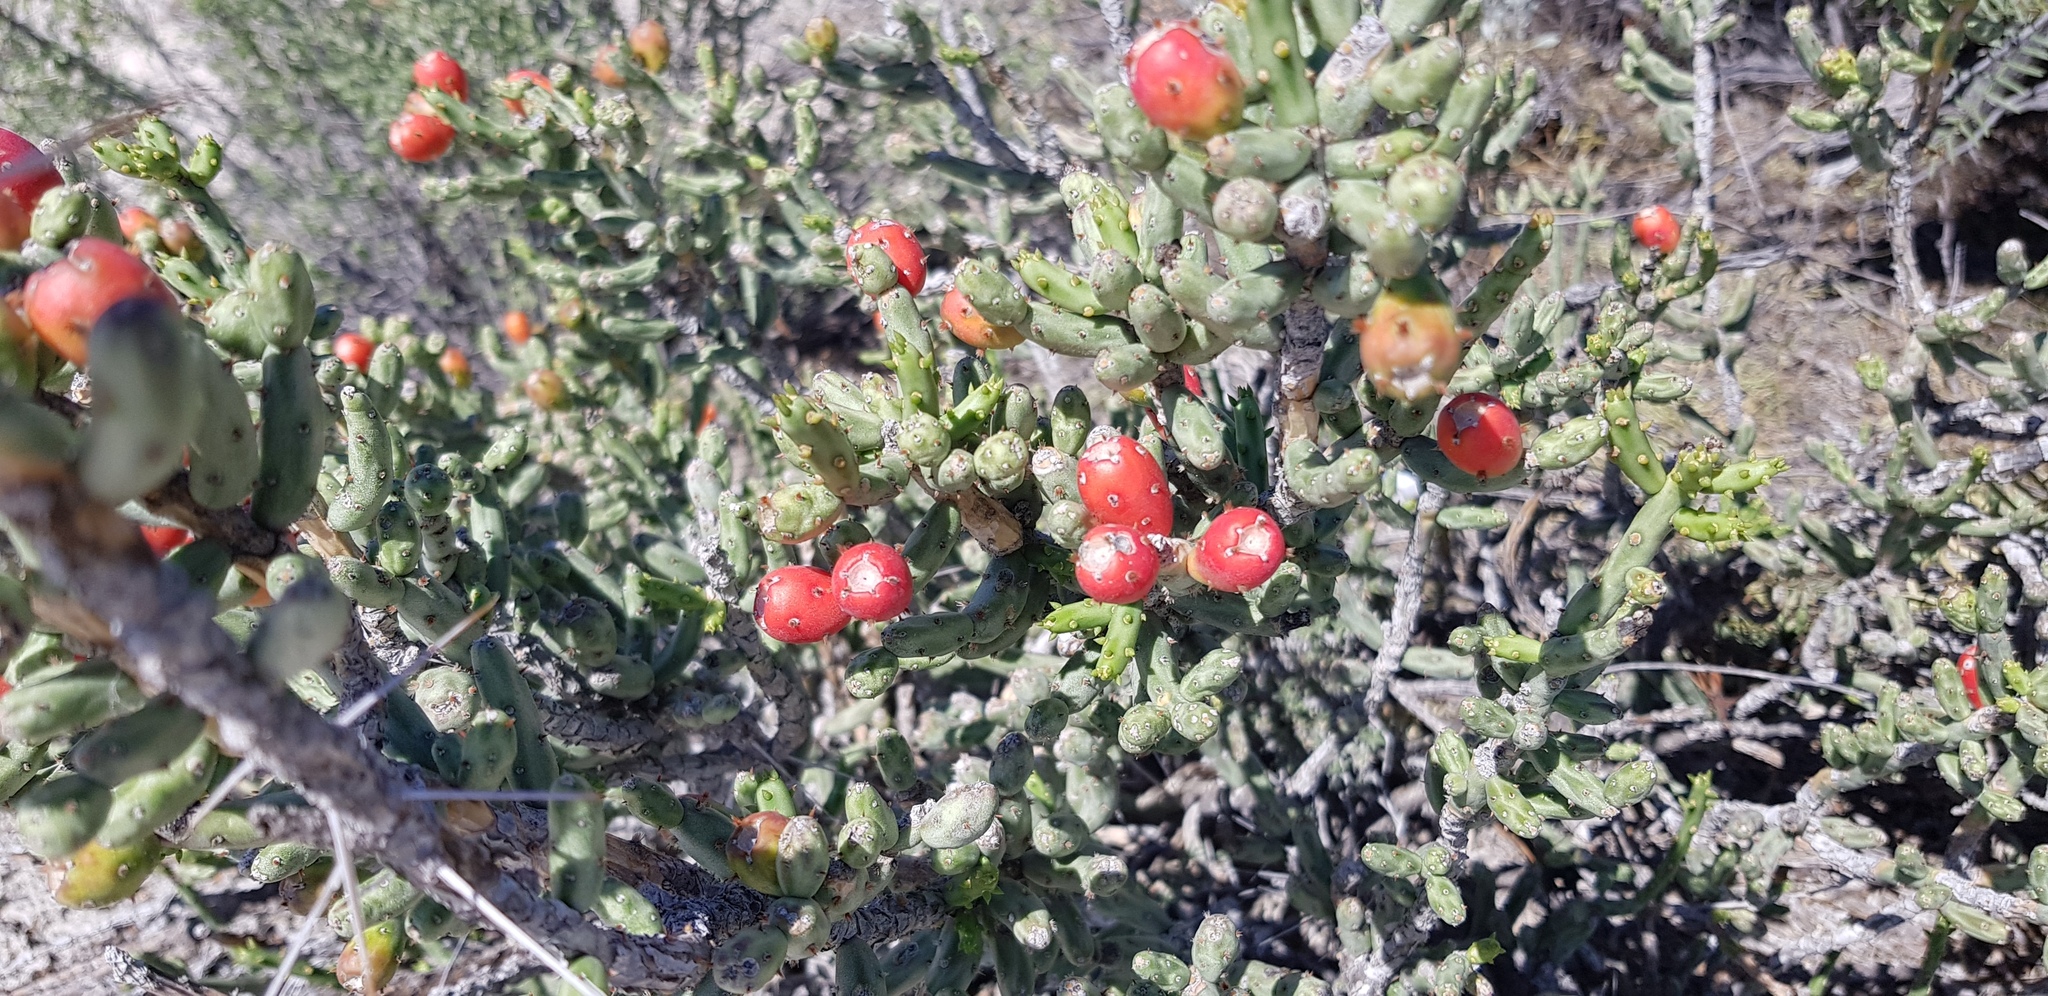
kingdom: Plantae
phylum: Tracheophyta
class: Magnoliopsida
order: Caryophyllales
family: Cactaceae
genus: Cylindropuntia
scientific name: Cylindropuntia leptocaulis
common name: Christmas cactus
